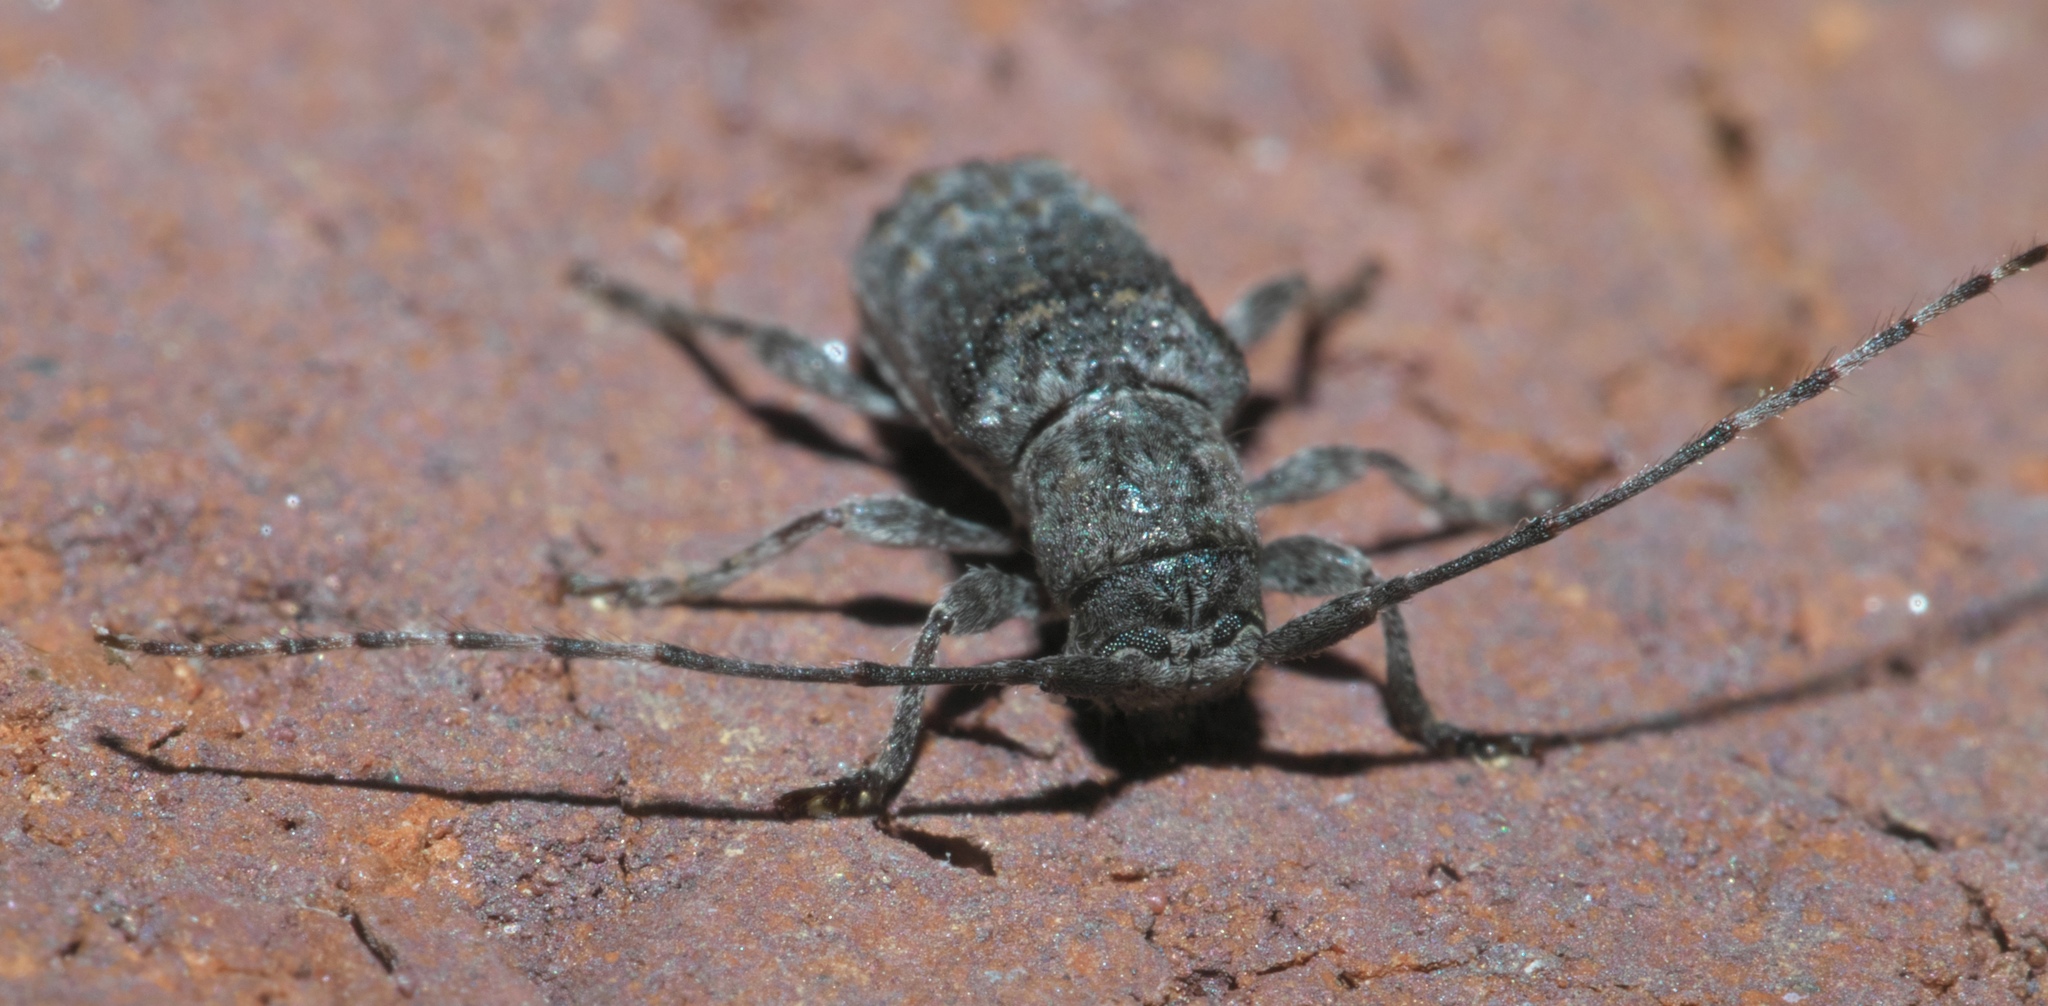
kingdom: Animalia
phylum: Arthropoda
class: Insecta
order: Coleoptera
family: Cerambycidae
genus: Ecyrus
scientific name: Ecyrus dasycerus
